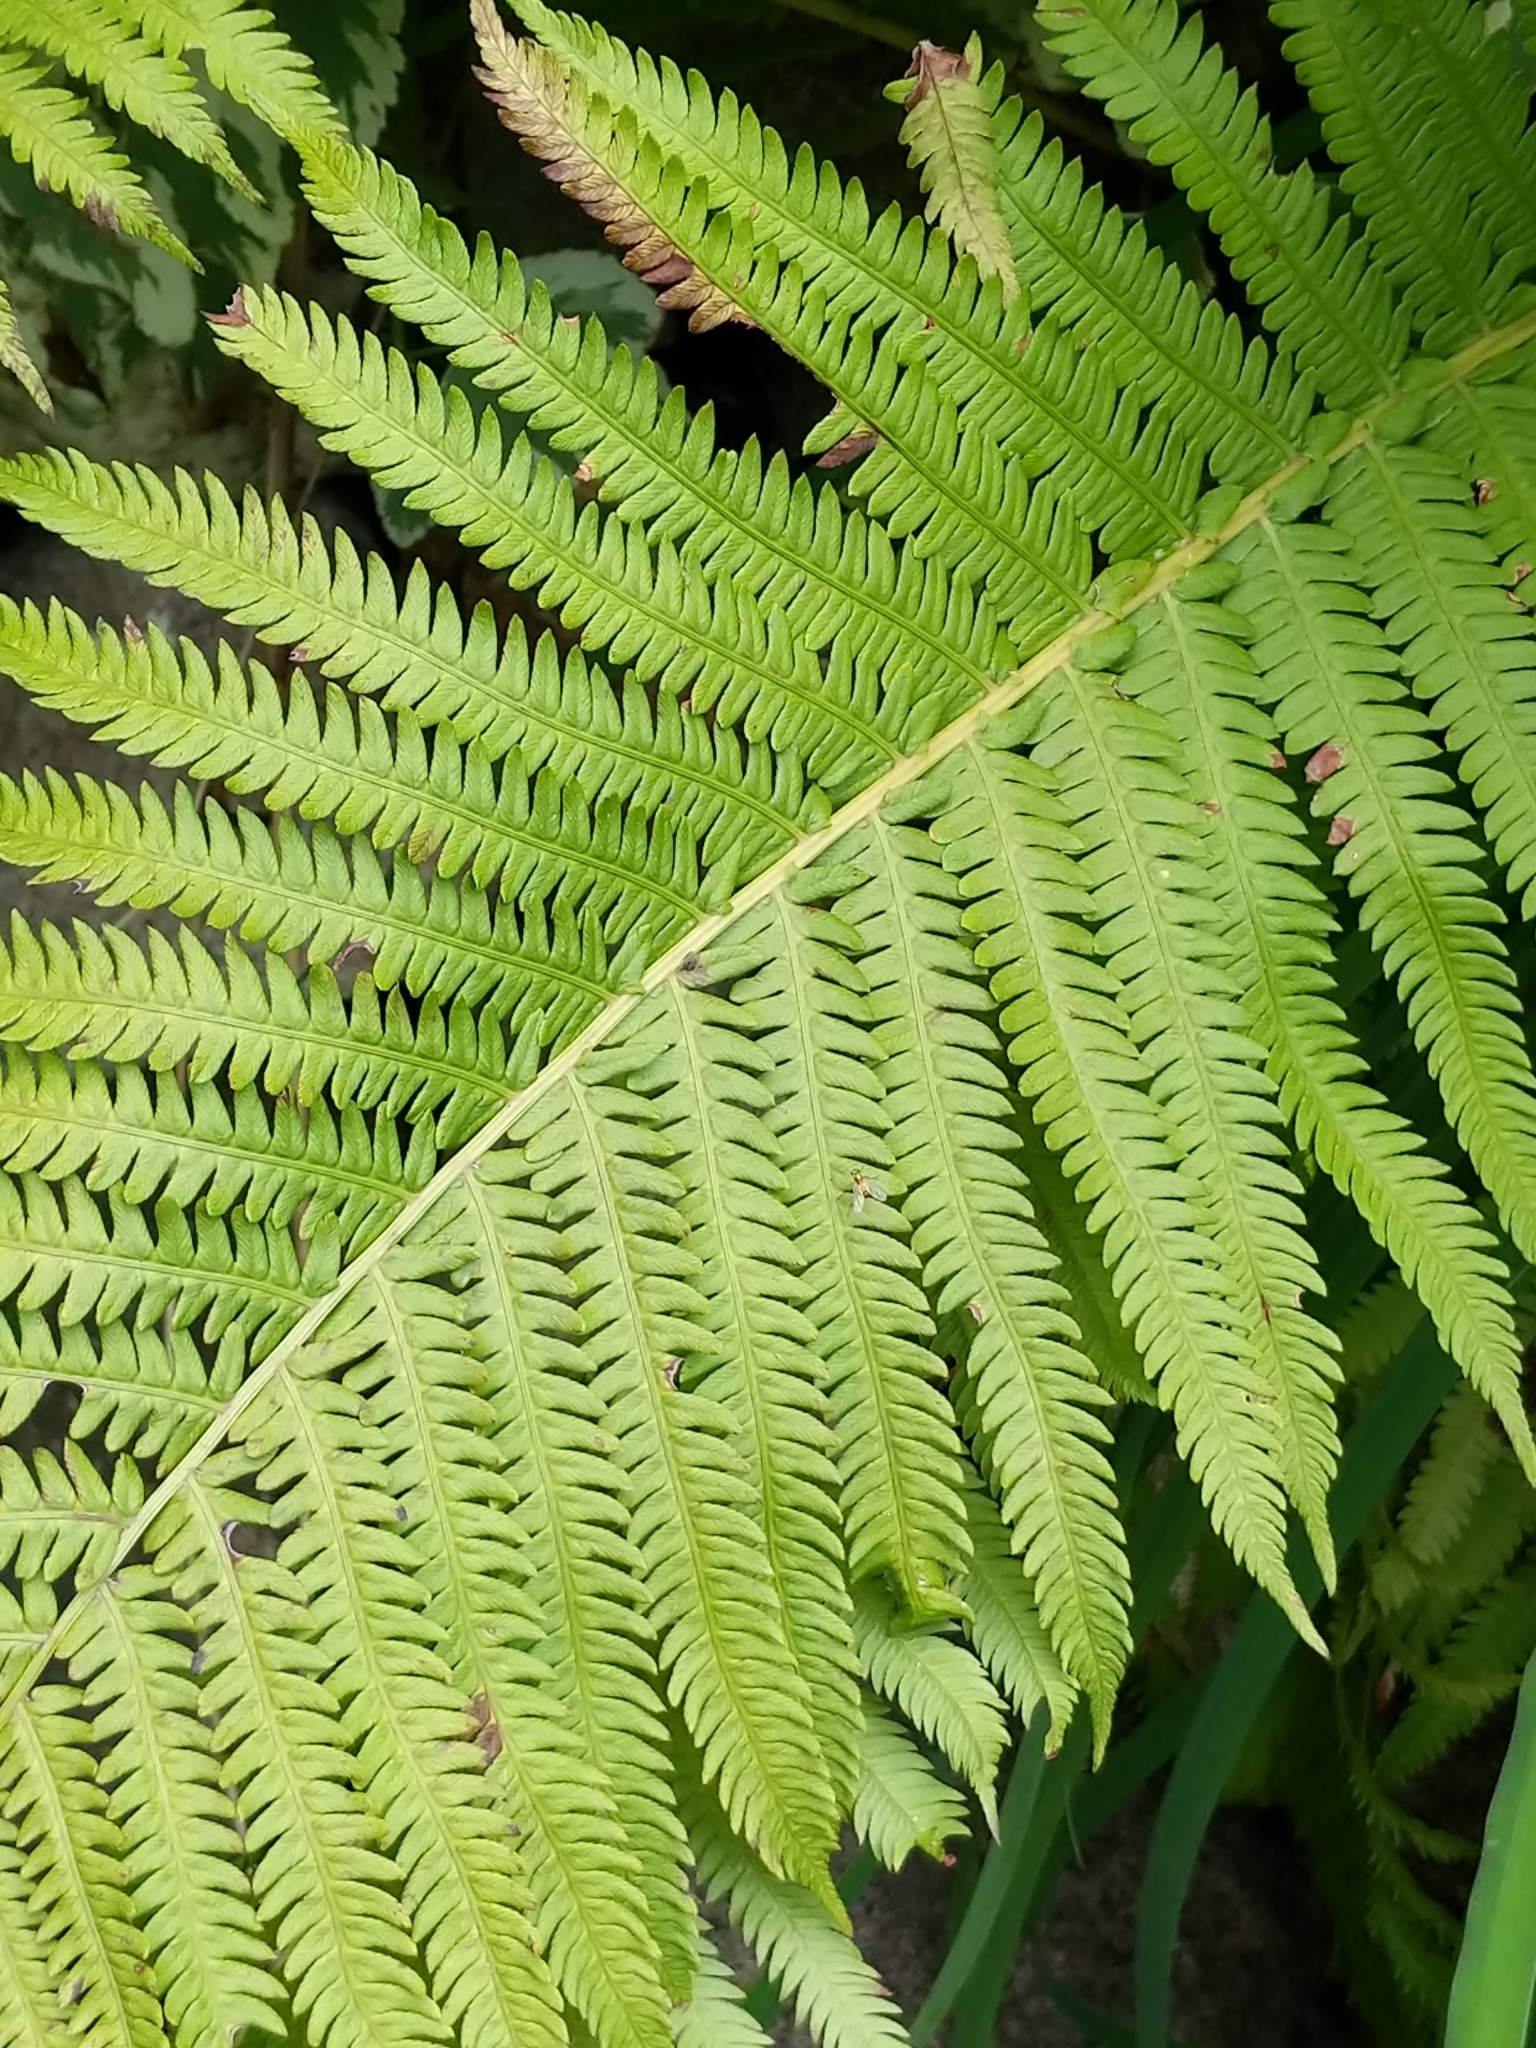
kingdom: Plantae
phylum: Tracheophyta
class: Polypodiopsida
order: Polypodiales
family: Onocleaceae
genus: Matteuccia
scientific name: Matteuccia struthiopteris
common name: Ostrich fern
